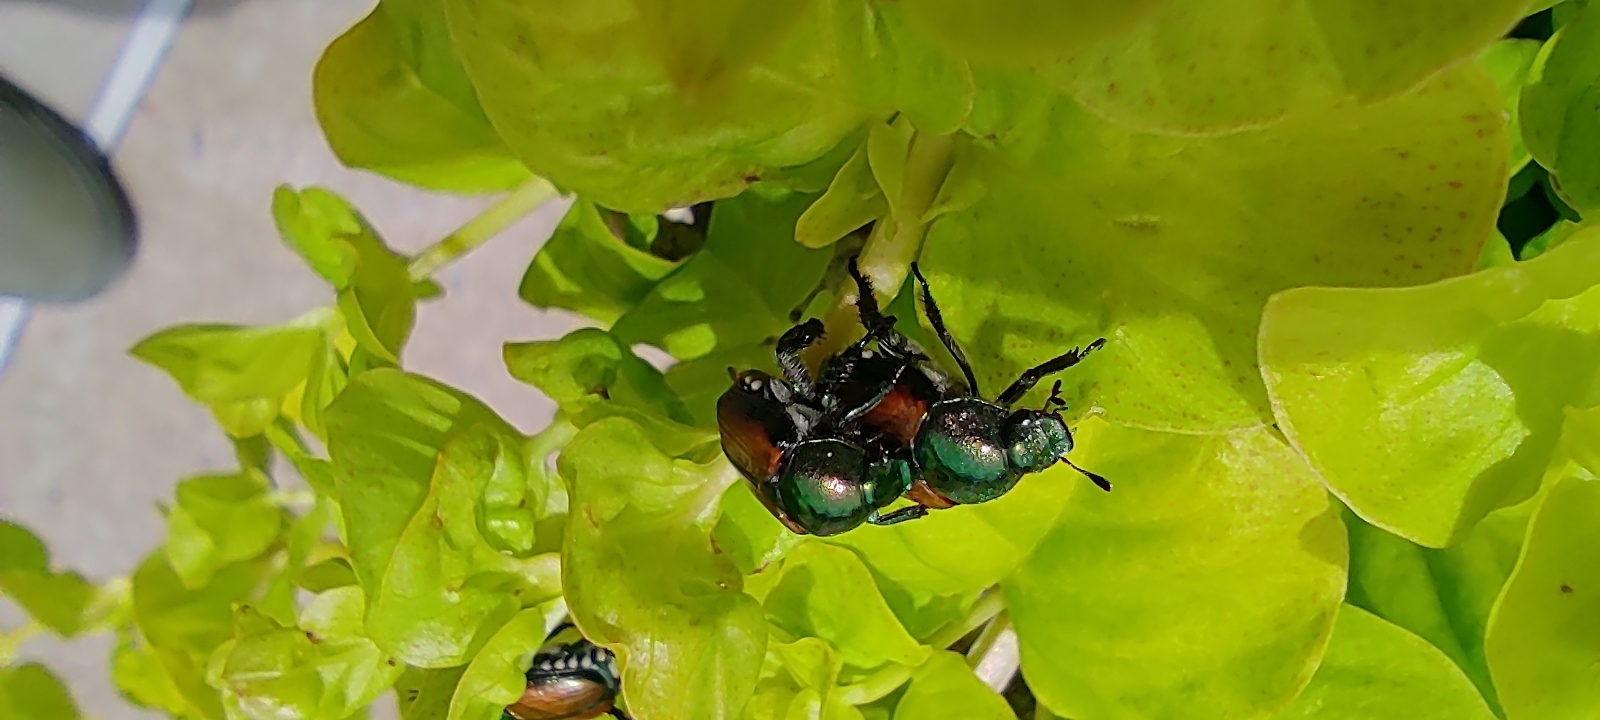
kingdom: Animalia
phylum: Arthropoda
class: Insecta
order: Coleoptera
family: Scarabaeidae
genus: Popillia
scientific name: Popillia japonica
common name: Japanese beetle
